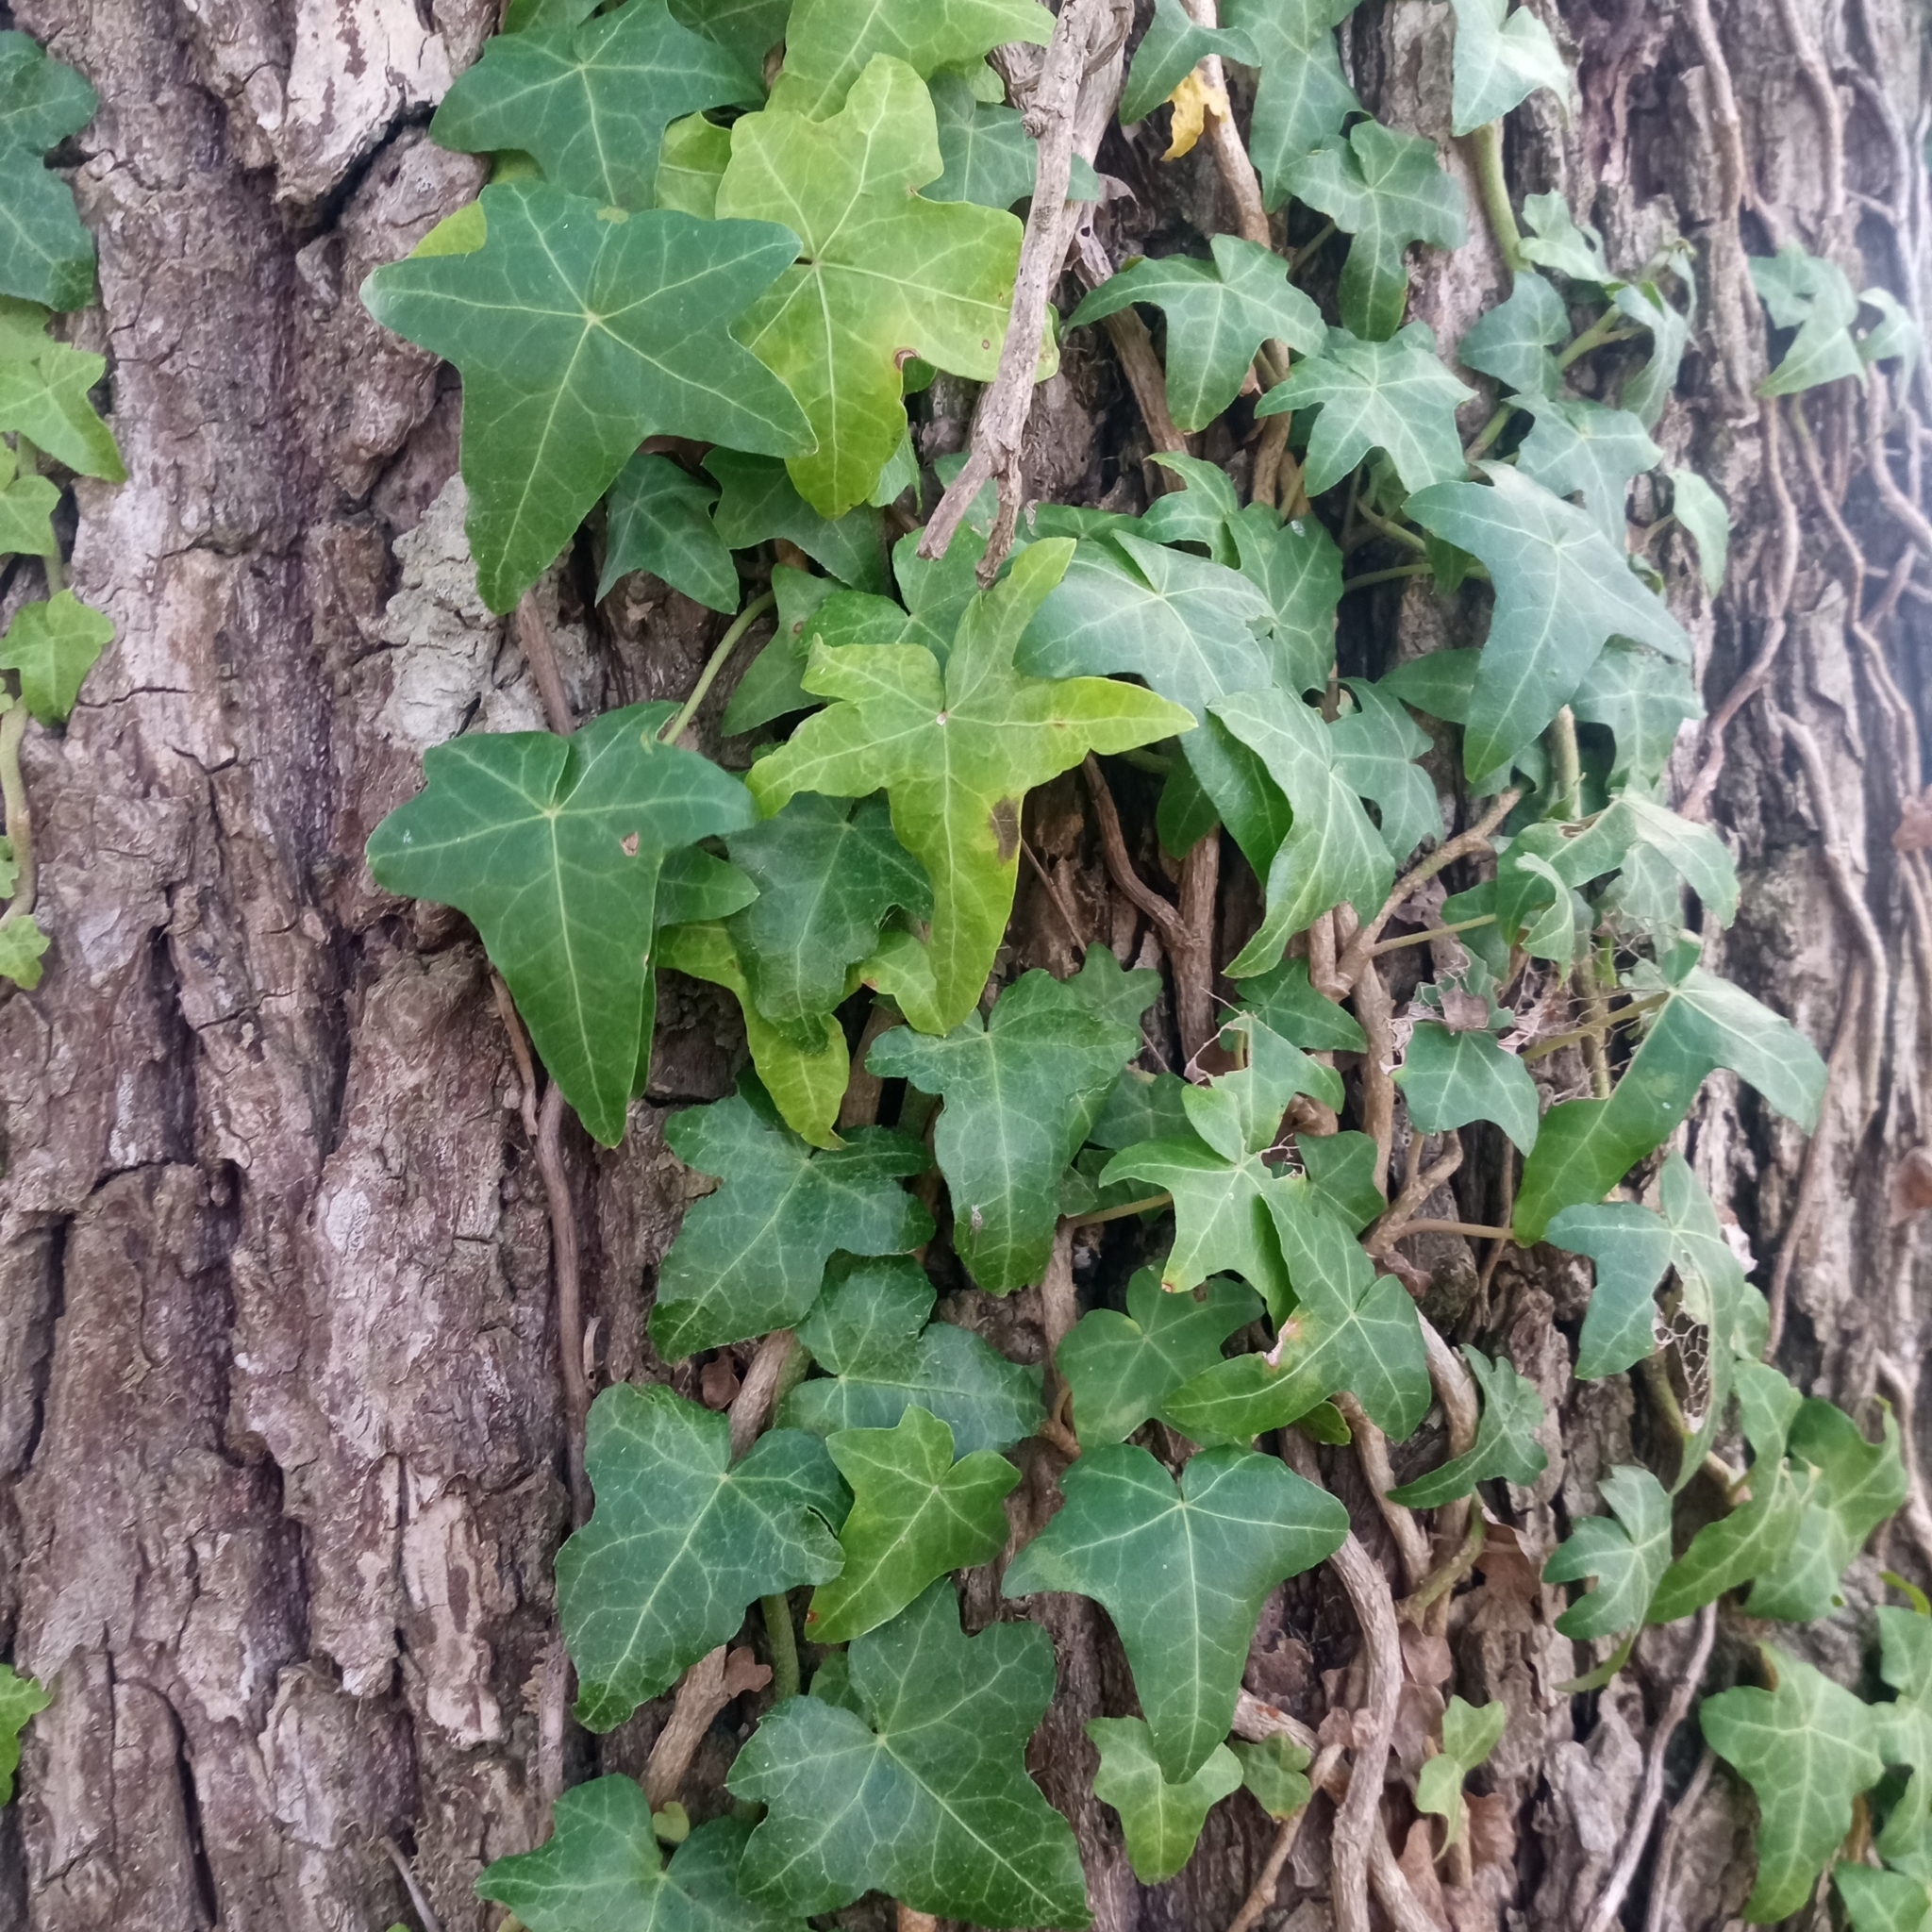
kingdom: Plantae
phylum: Tracheophyta
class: Magnoliopsida
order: Apiales
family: Araliaceae
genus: Hedera
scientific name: Hedera helix
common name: Ivy
